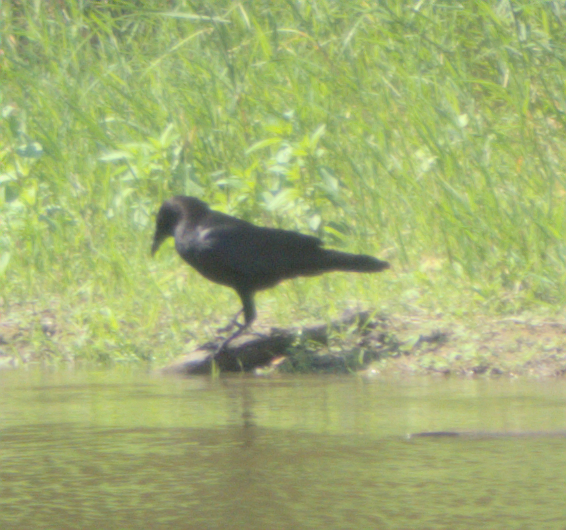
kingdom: Animalia
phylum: Chordata
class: Aves
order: Passeriformes
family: Corvidae
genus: Corvus
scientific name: Corvus brachyrhynchos
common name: American crow
